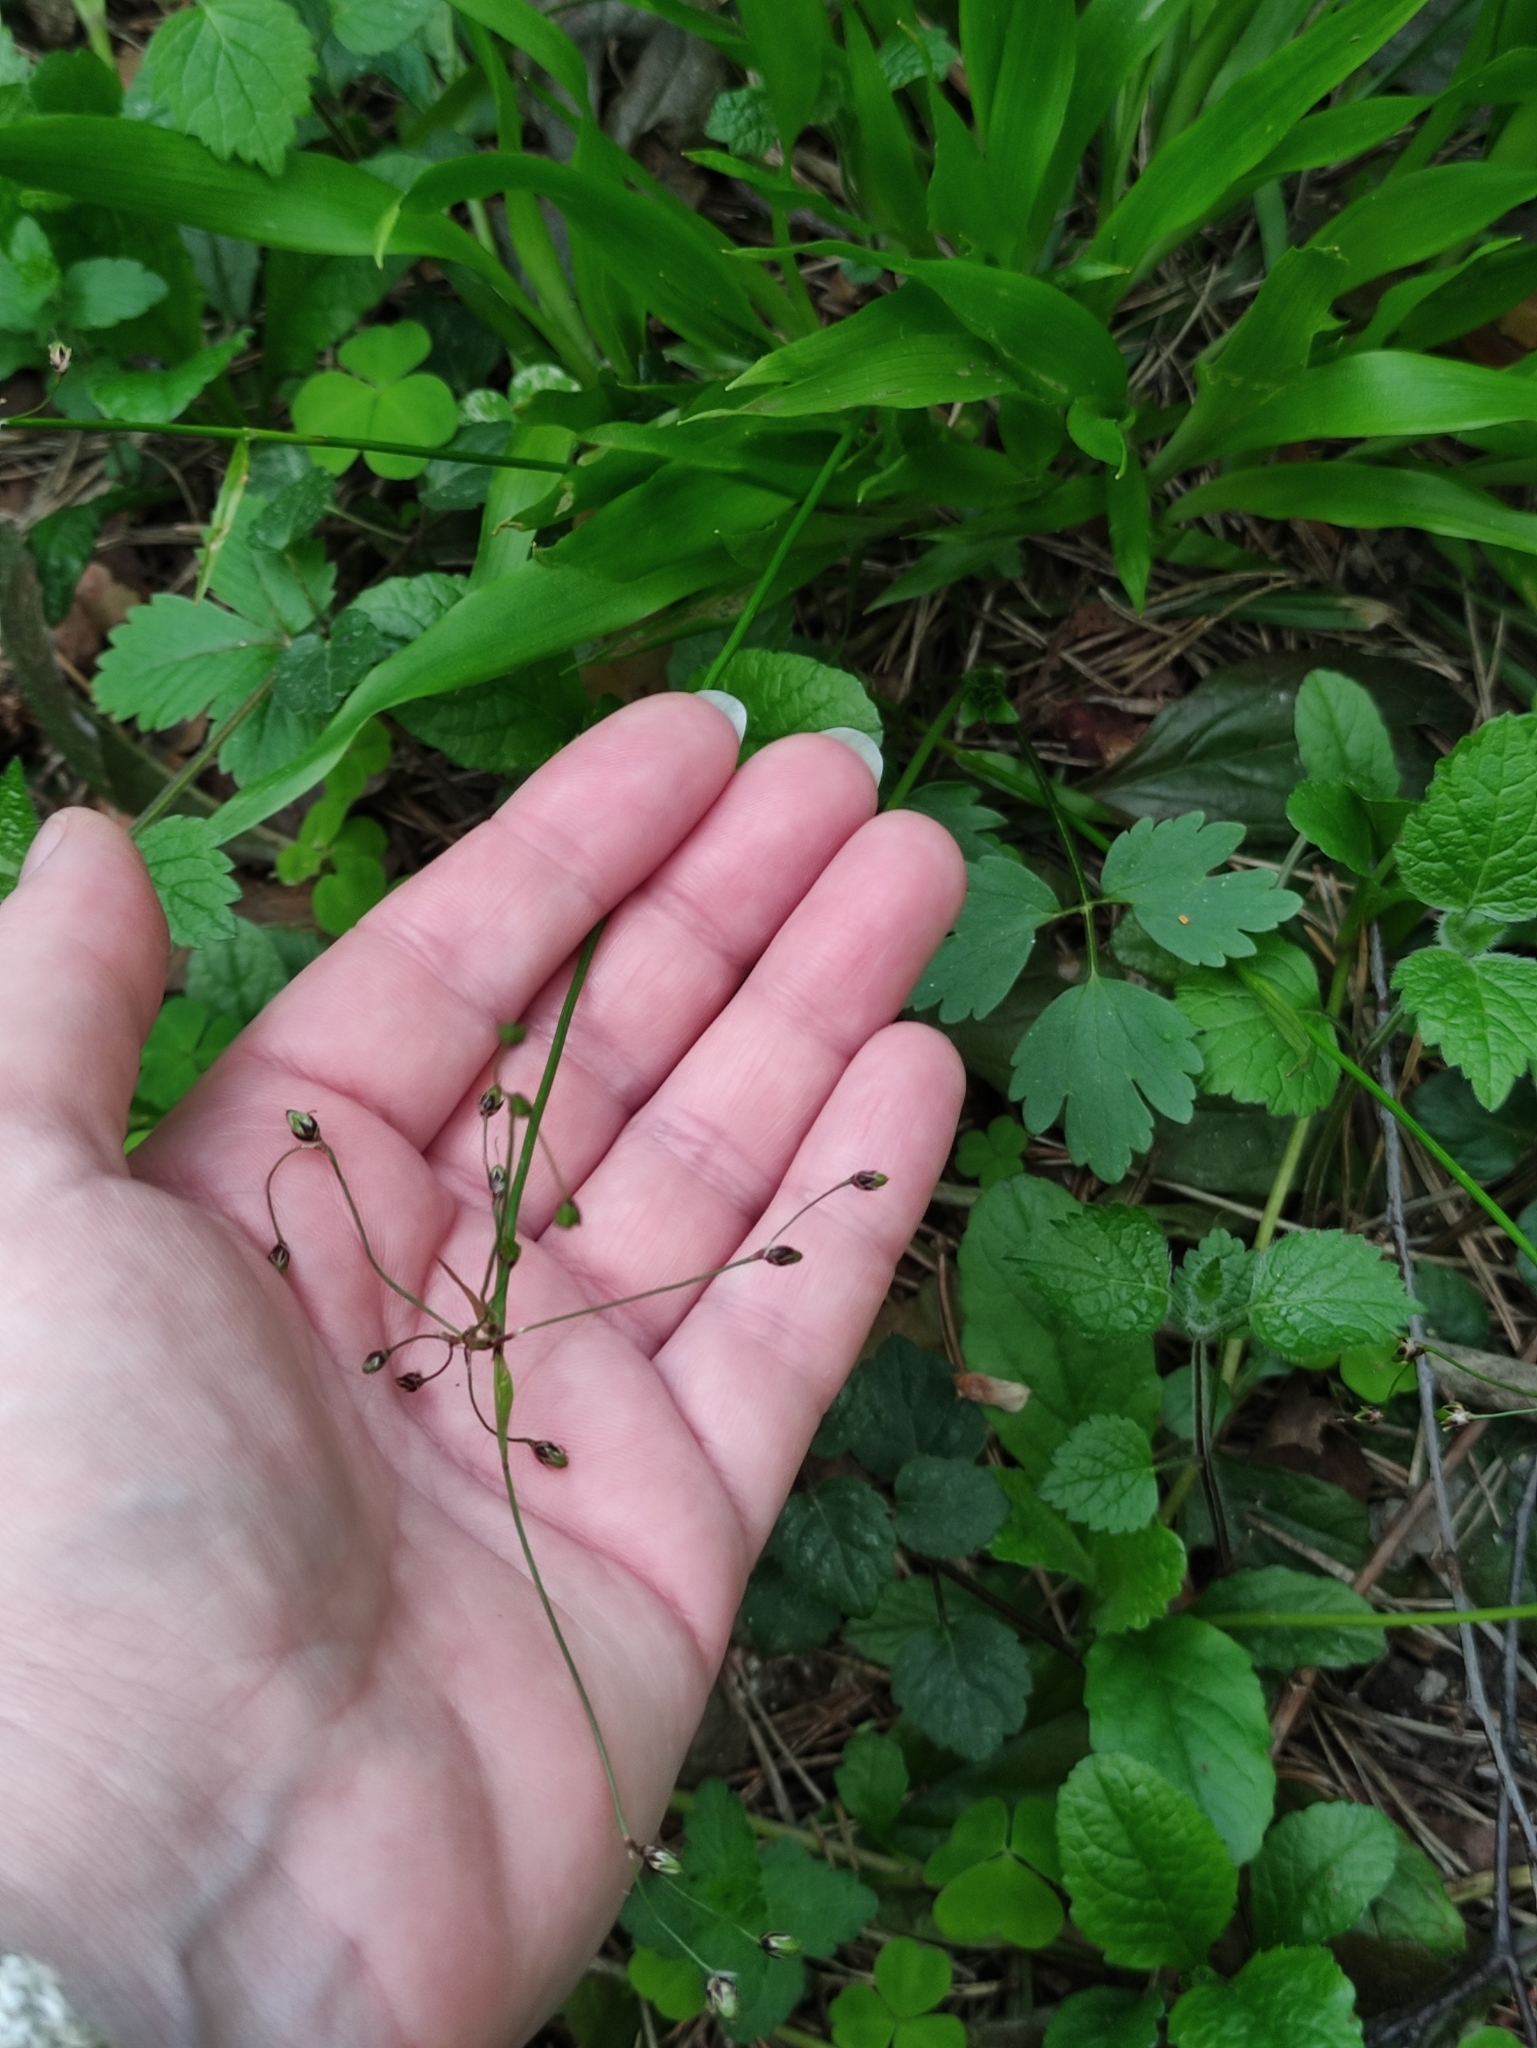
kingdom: Plantae
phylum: Tracheophyta
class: Liliopsida
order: Poales
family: Juncaceae
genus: Luzula
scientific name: Luzula pilosa
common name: Hairy wood-rush
